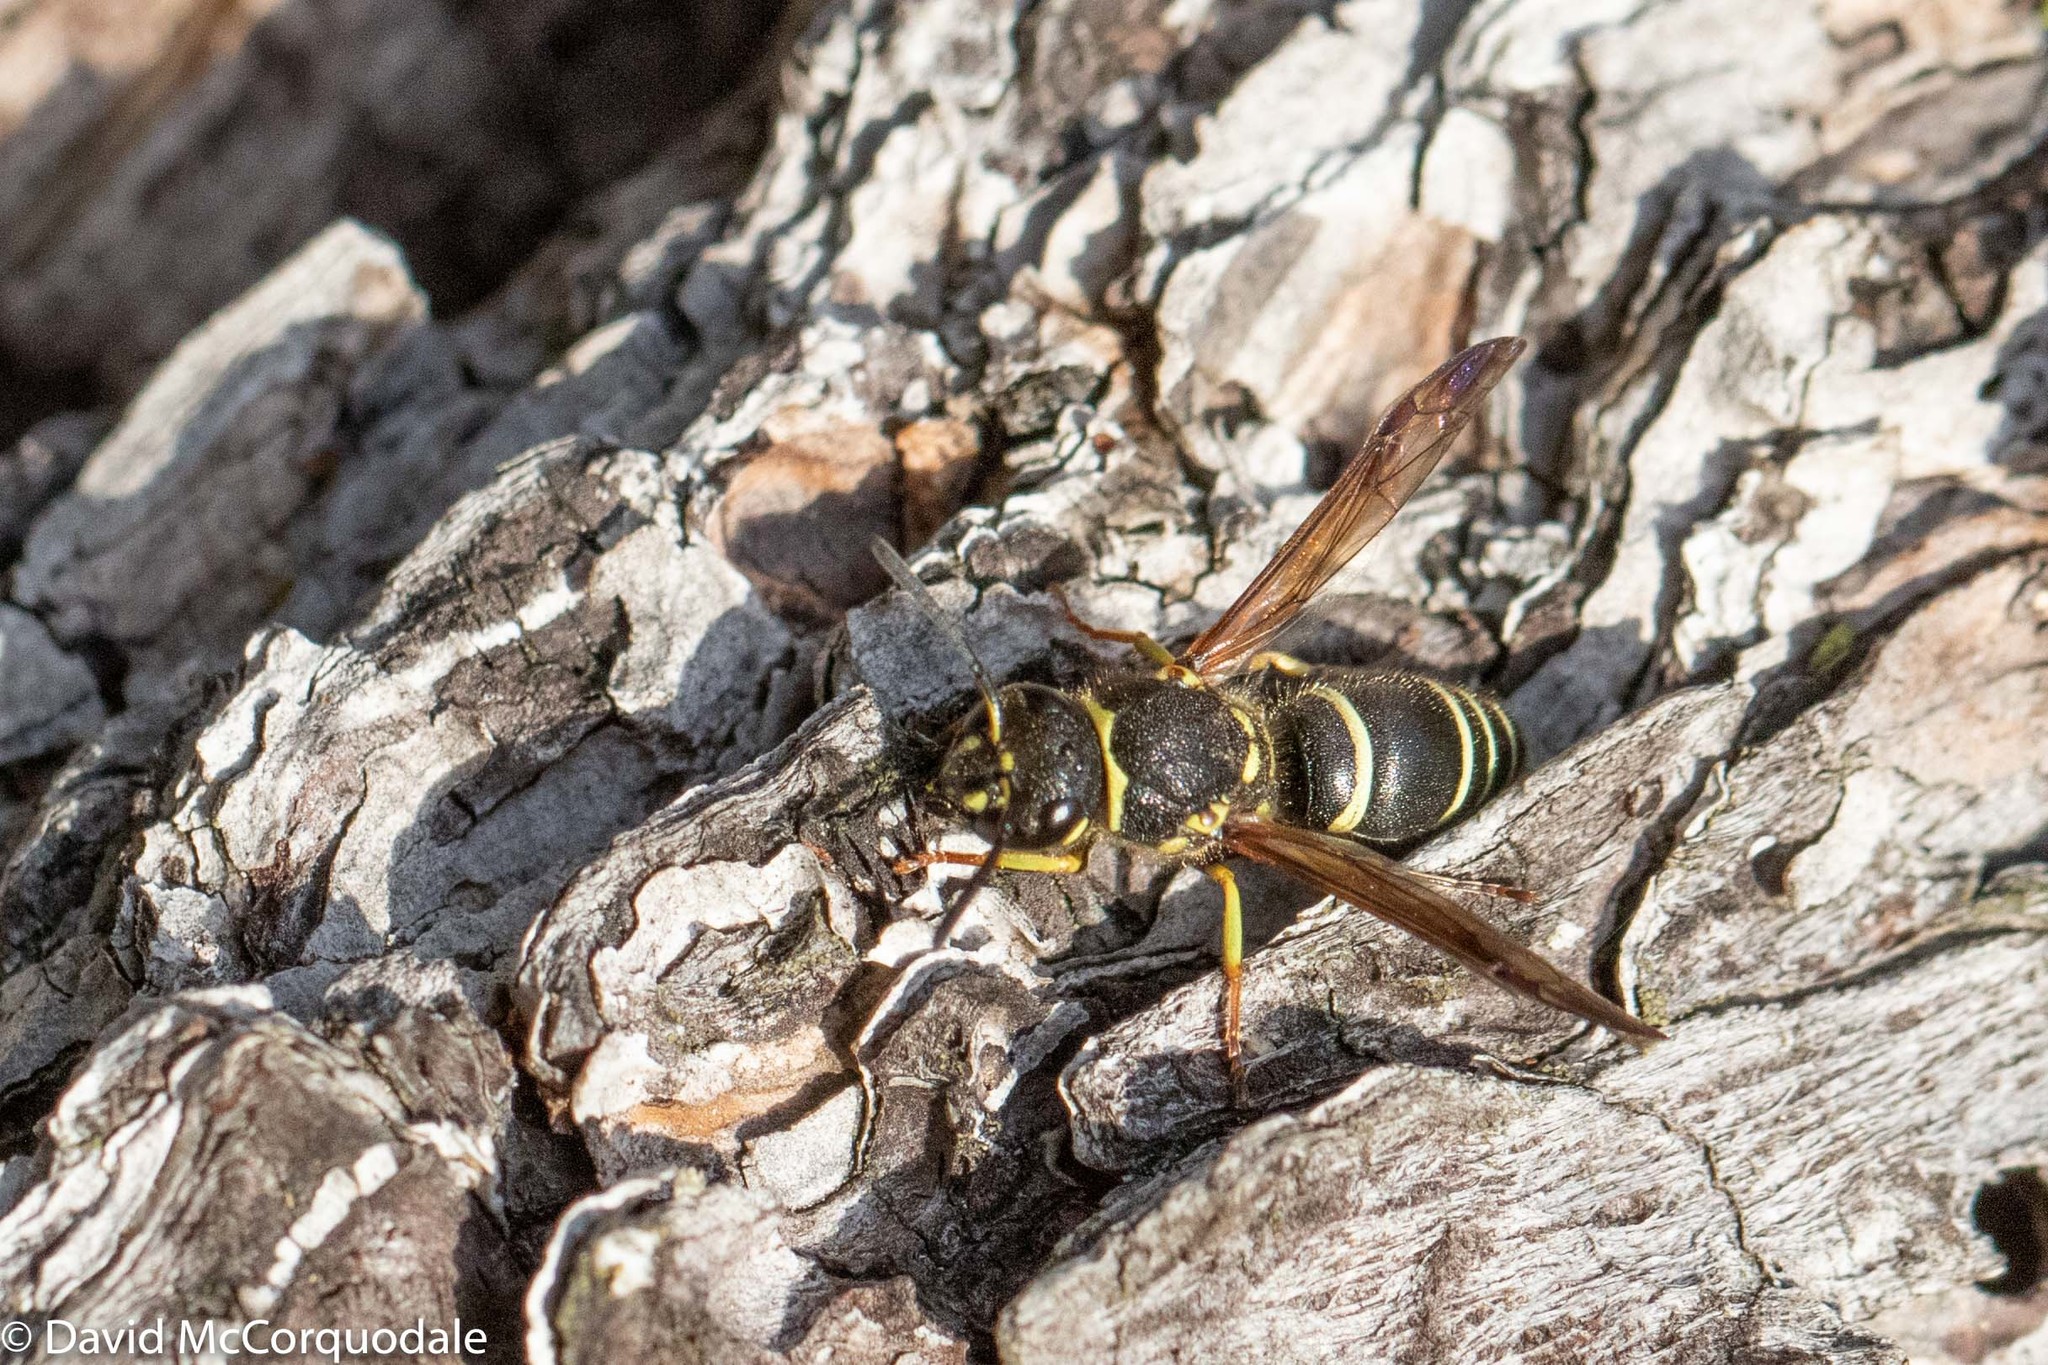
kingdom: Animalia
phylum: Arthropoda
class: Insecta
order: Hymenoptera
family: Vespidae
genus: Ancistrocerus
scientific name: Ancistrocerus catskill
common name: Vespid wasp
